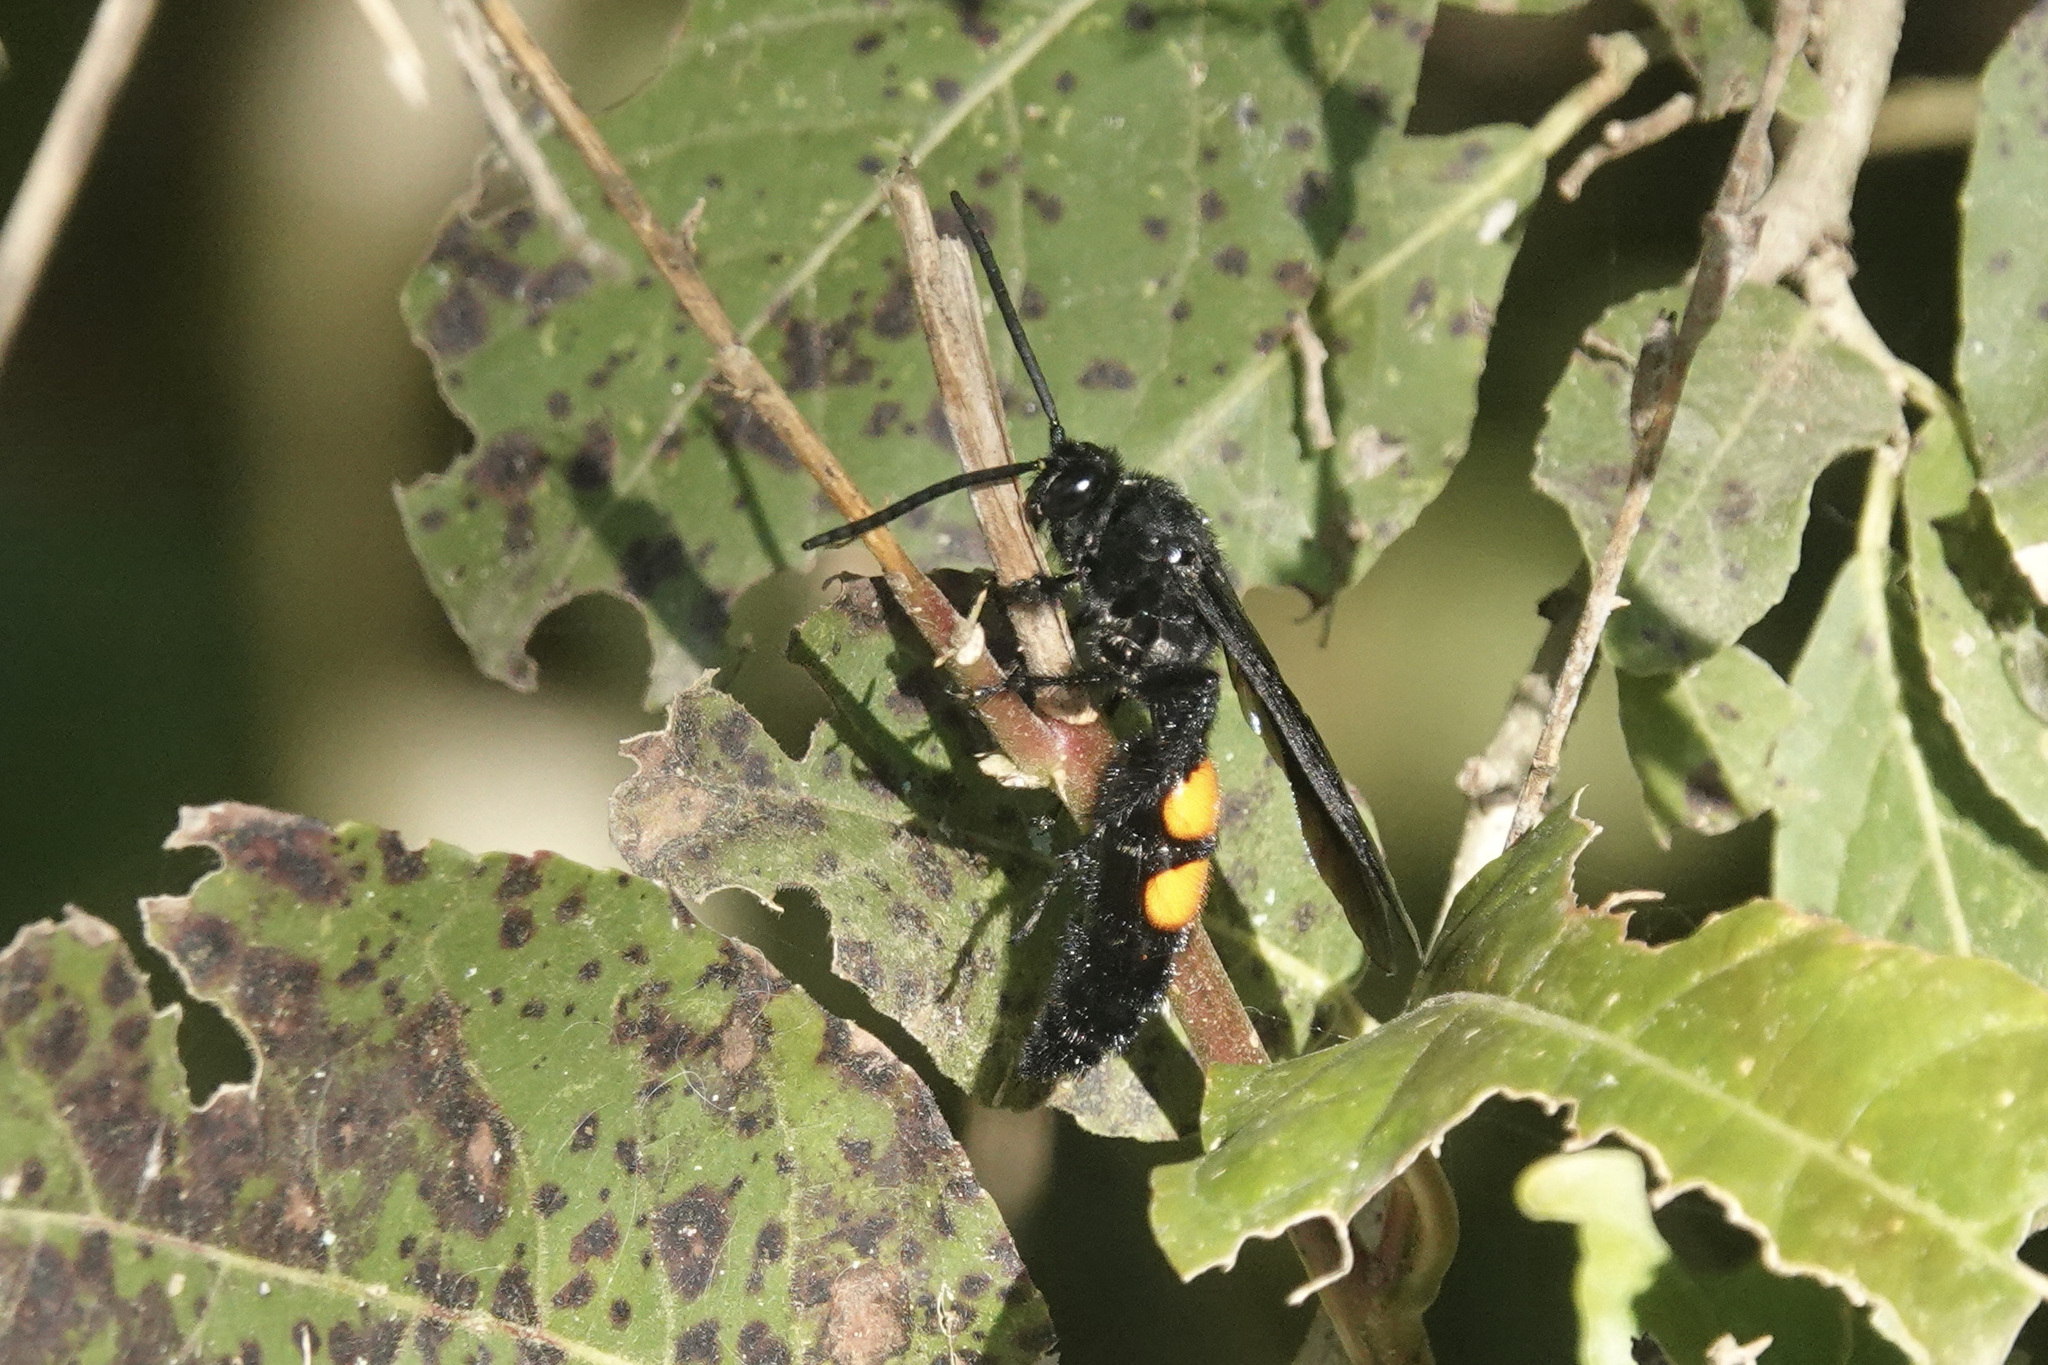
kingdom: Animalia
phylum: Arthropoda
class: Insecta
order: Hymenoptera
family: Scoliidae
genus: Pygodasis
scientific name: Pygodasis ephippium
